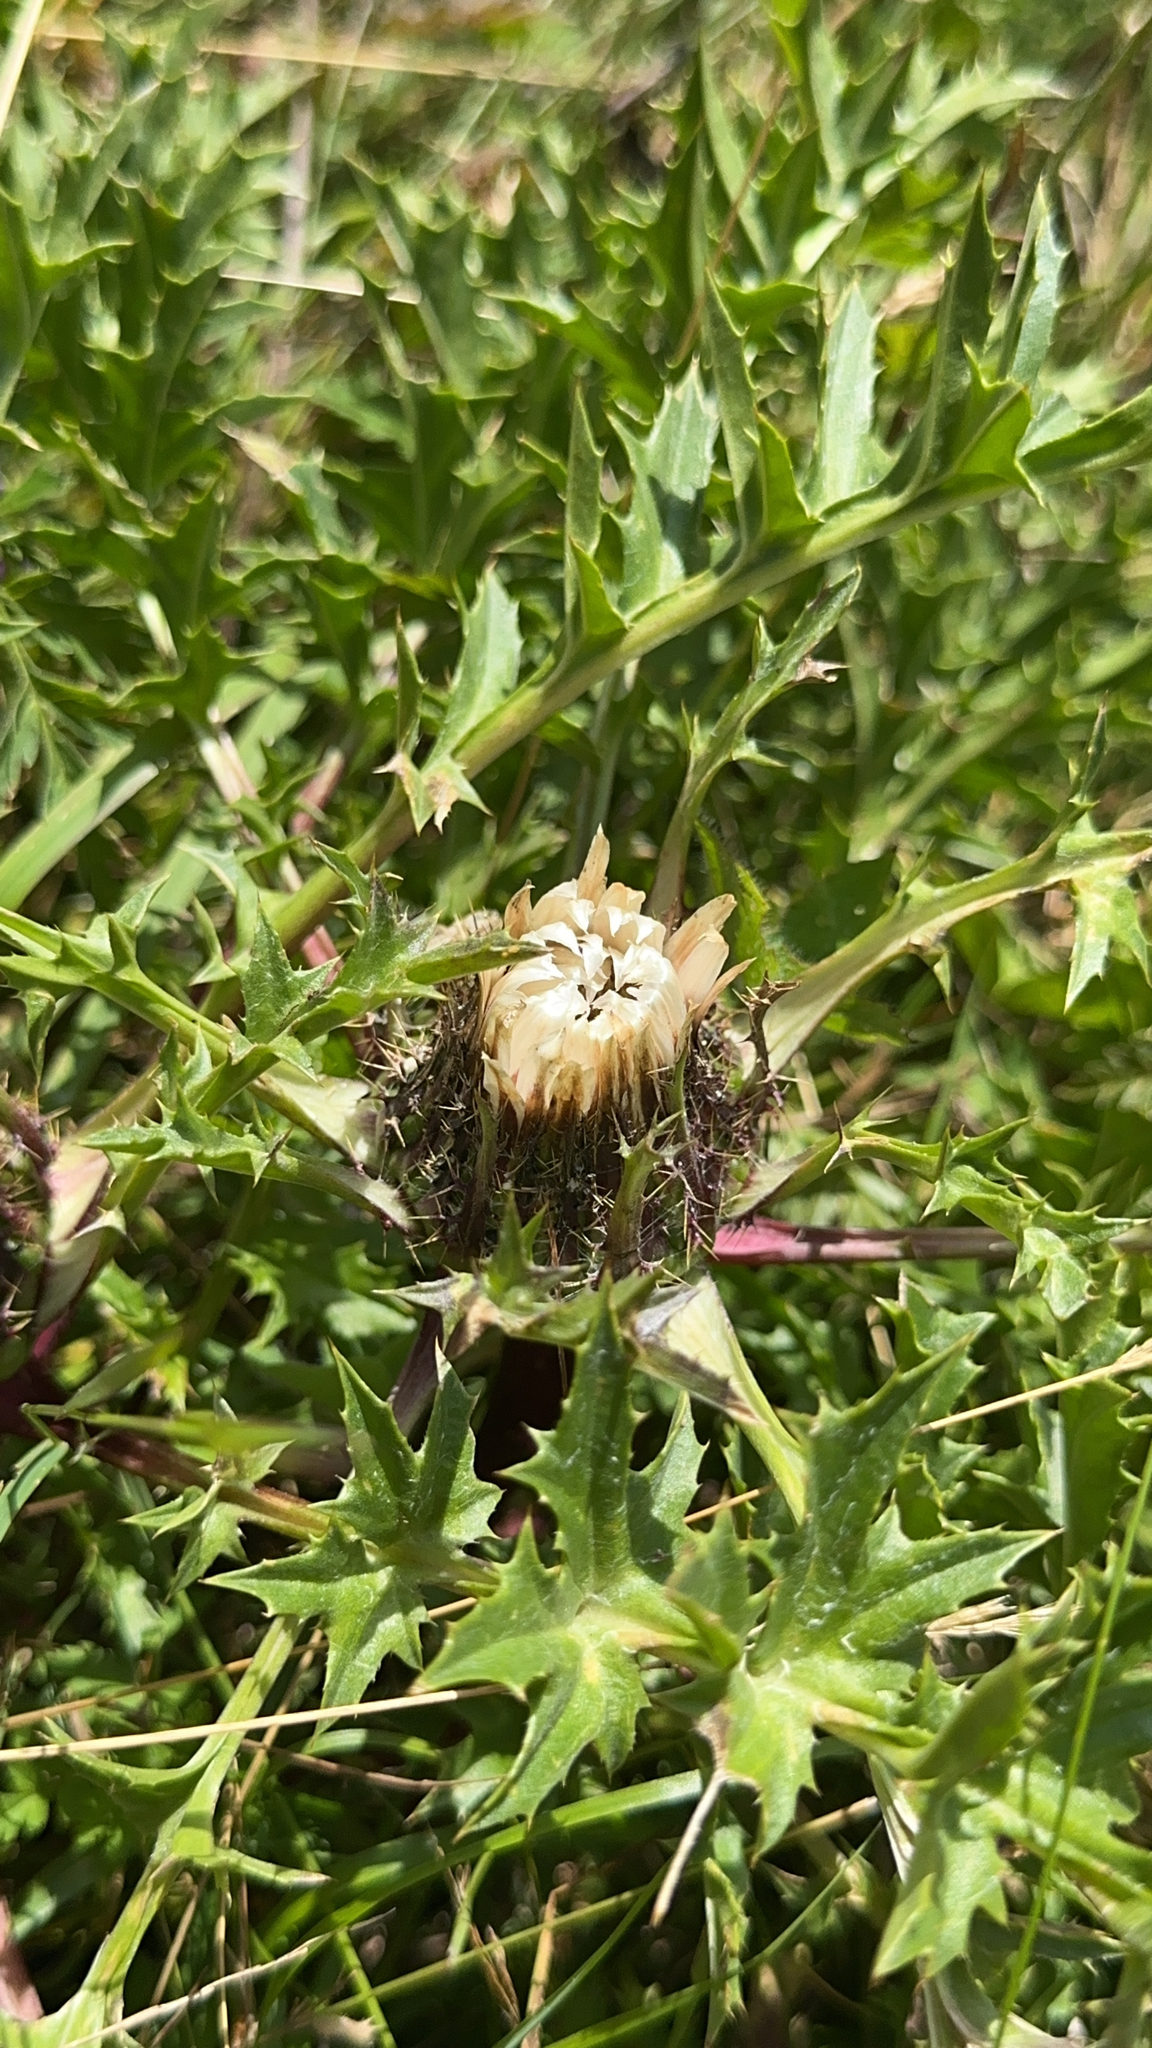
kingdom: Plantae
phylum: Tracheophyta
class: Magnoliopsida
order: Asterales
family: Asteraceae
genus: Carlina
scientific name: Carlina acaulis
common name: Stemless carline thistle
